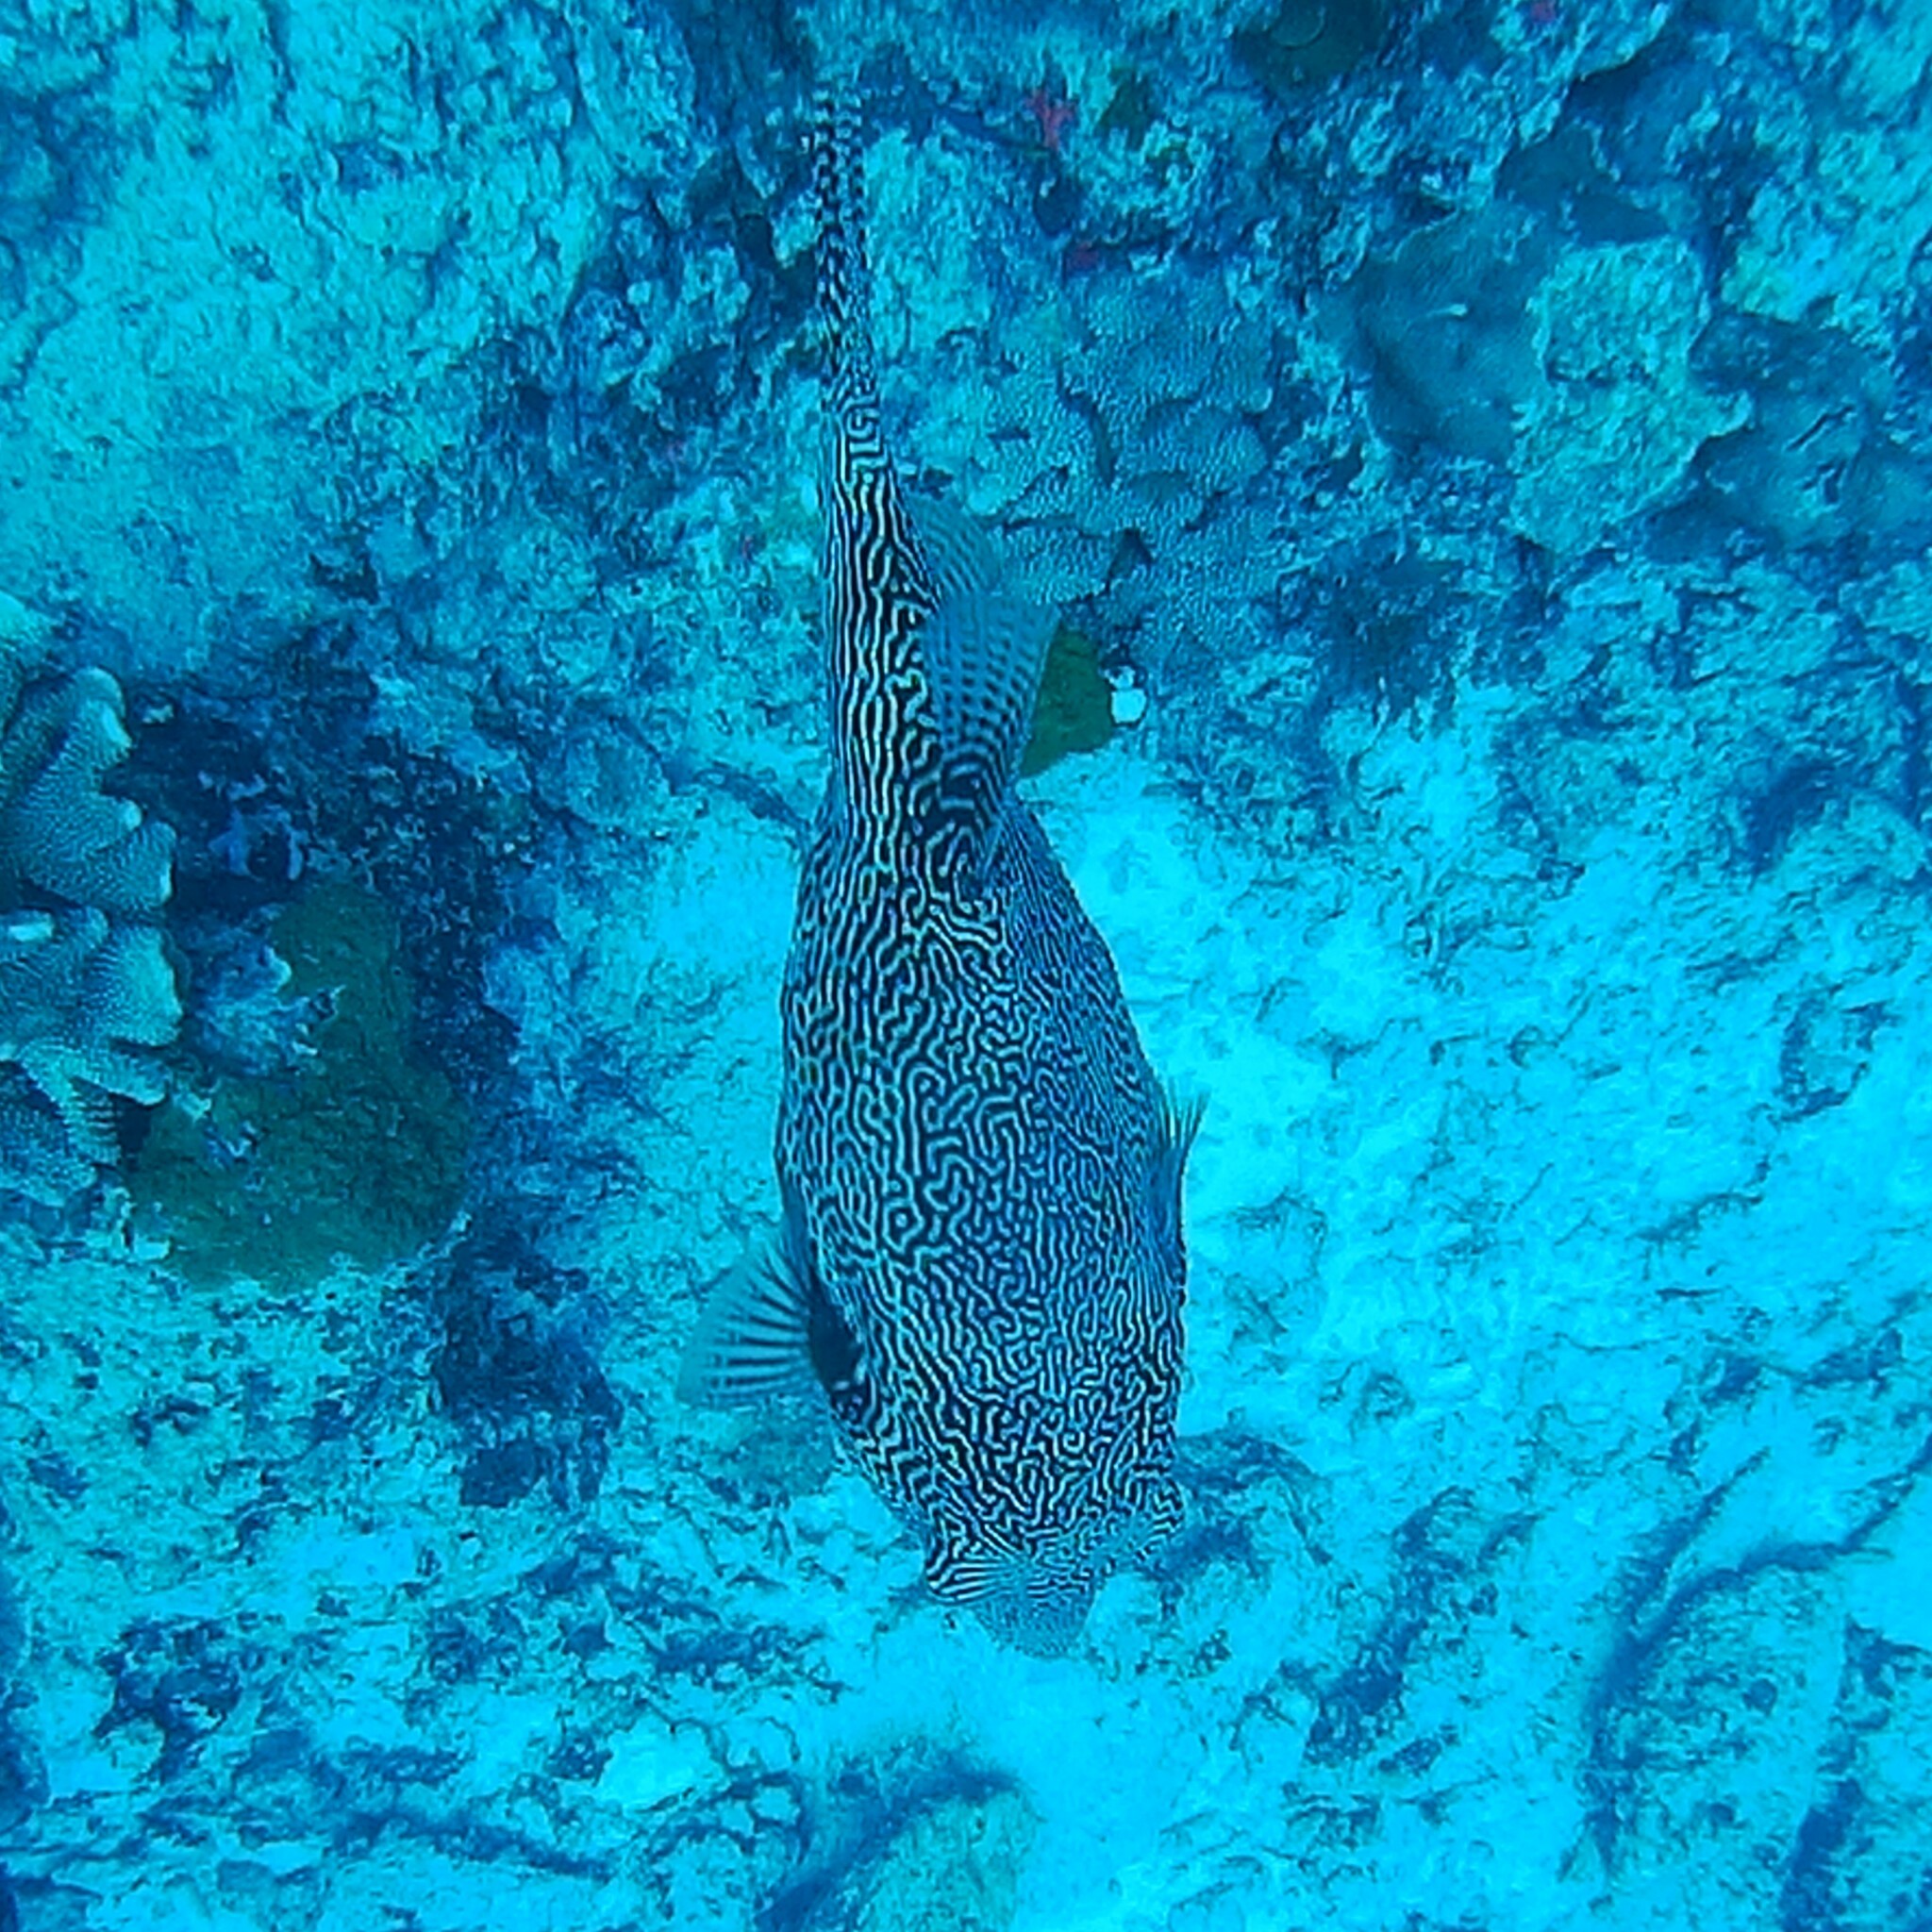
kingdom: Animalia
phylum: Chordata
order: Tetraodontiformes
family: Tetraodontidae
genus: Arothron
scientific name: Arothron mappa
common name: Map blaasop
